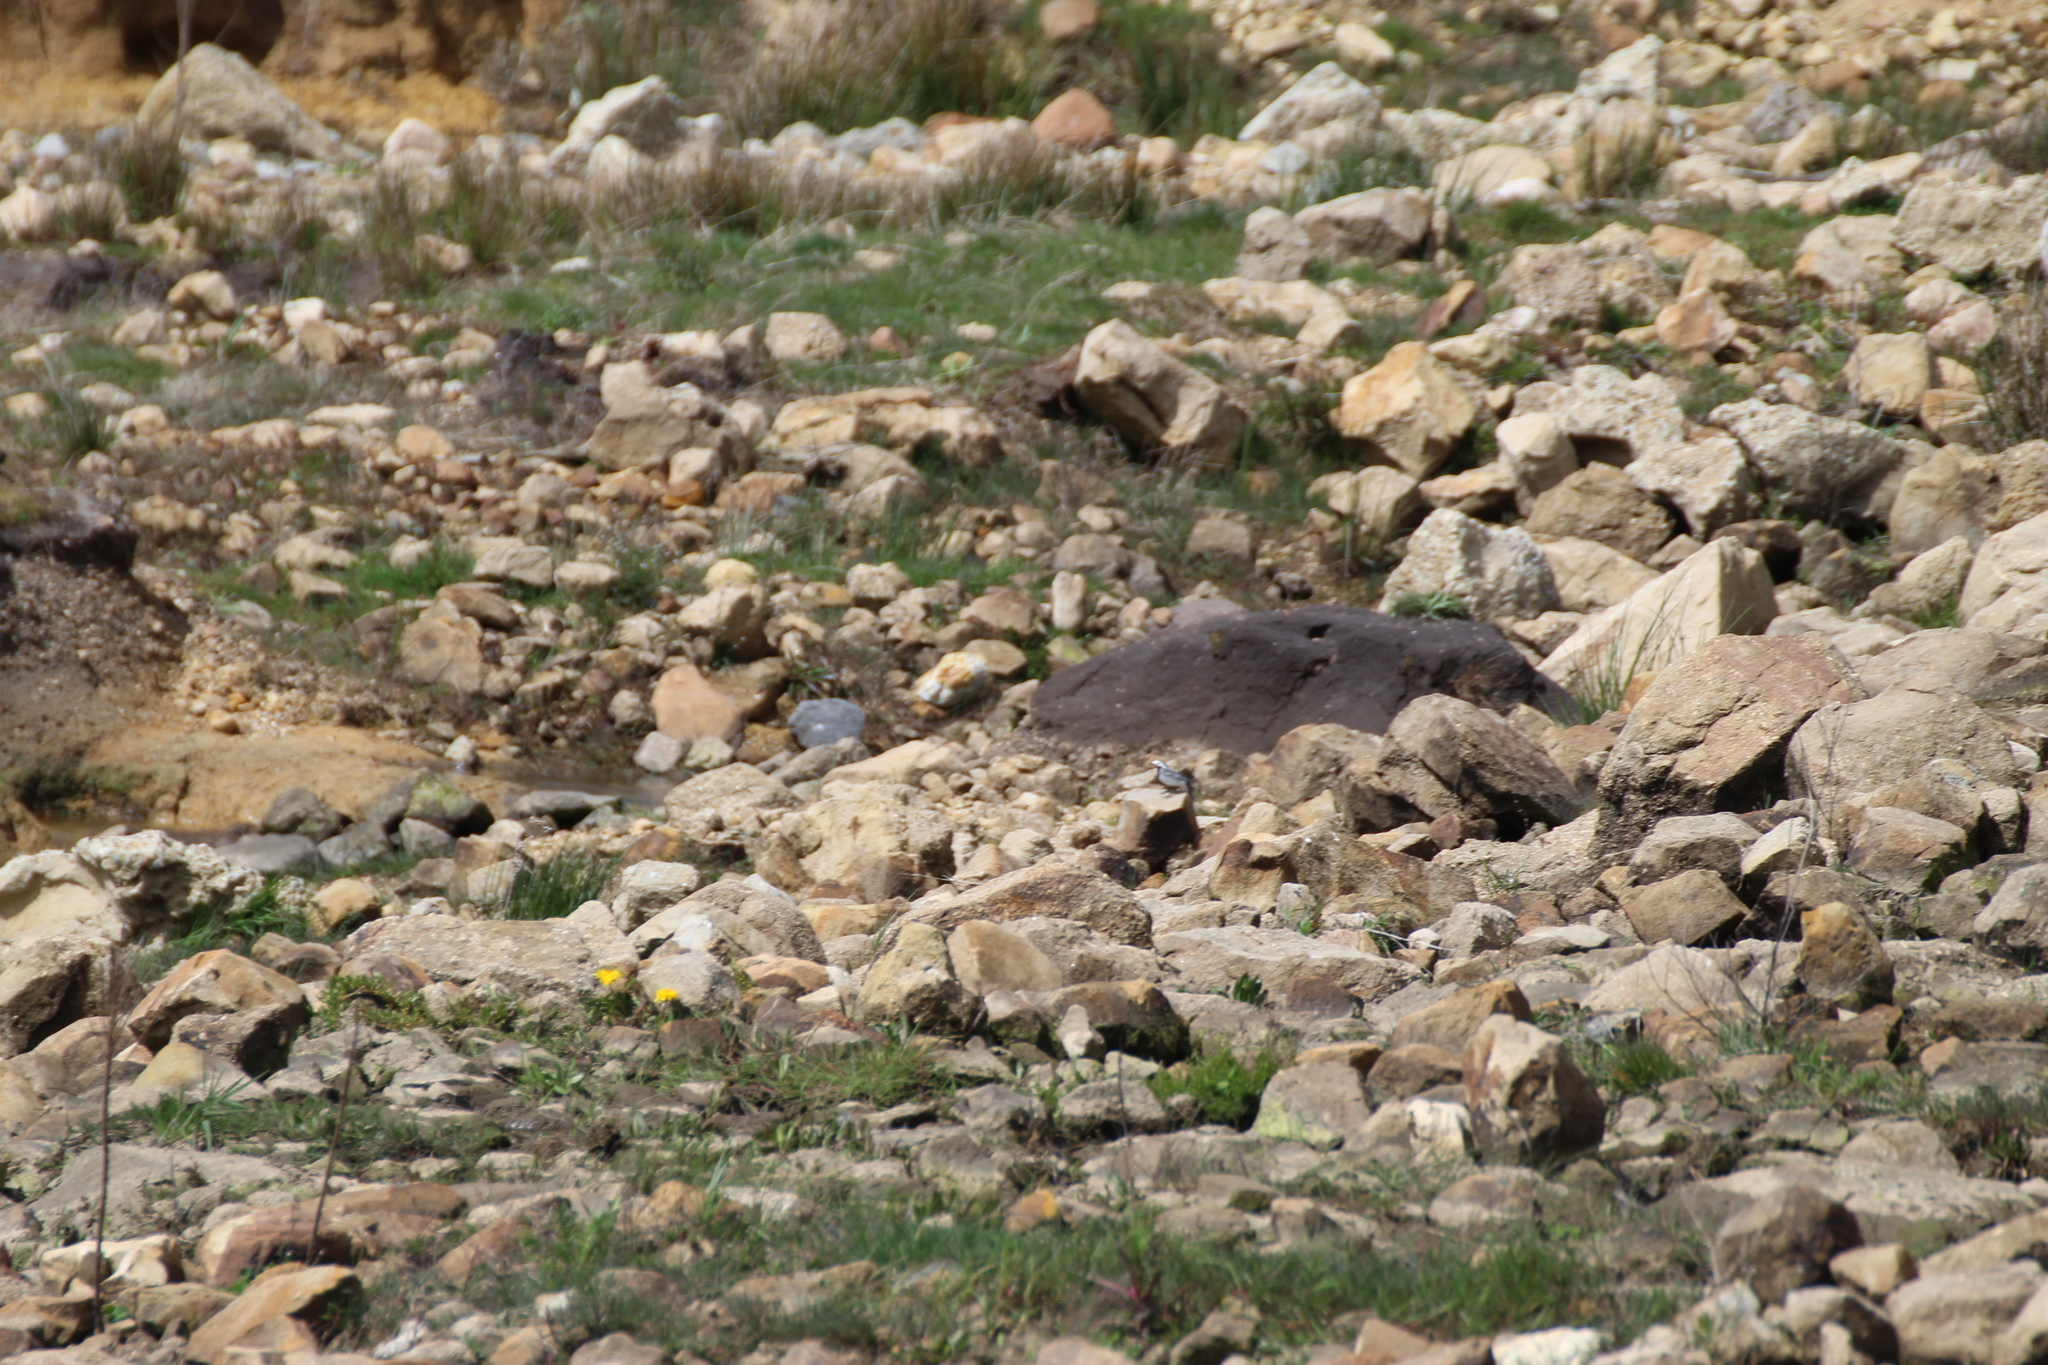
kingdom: Animalia
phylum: Chordata
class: Aves
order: Passeriformes
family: Motacillidae
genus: Motacilla
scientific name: Motacilla alba
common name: White wagtail
